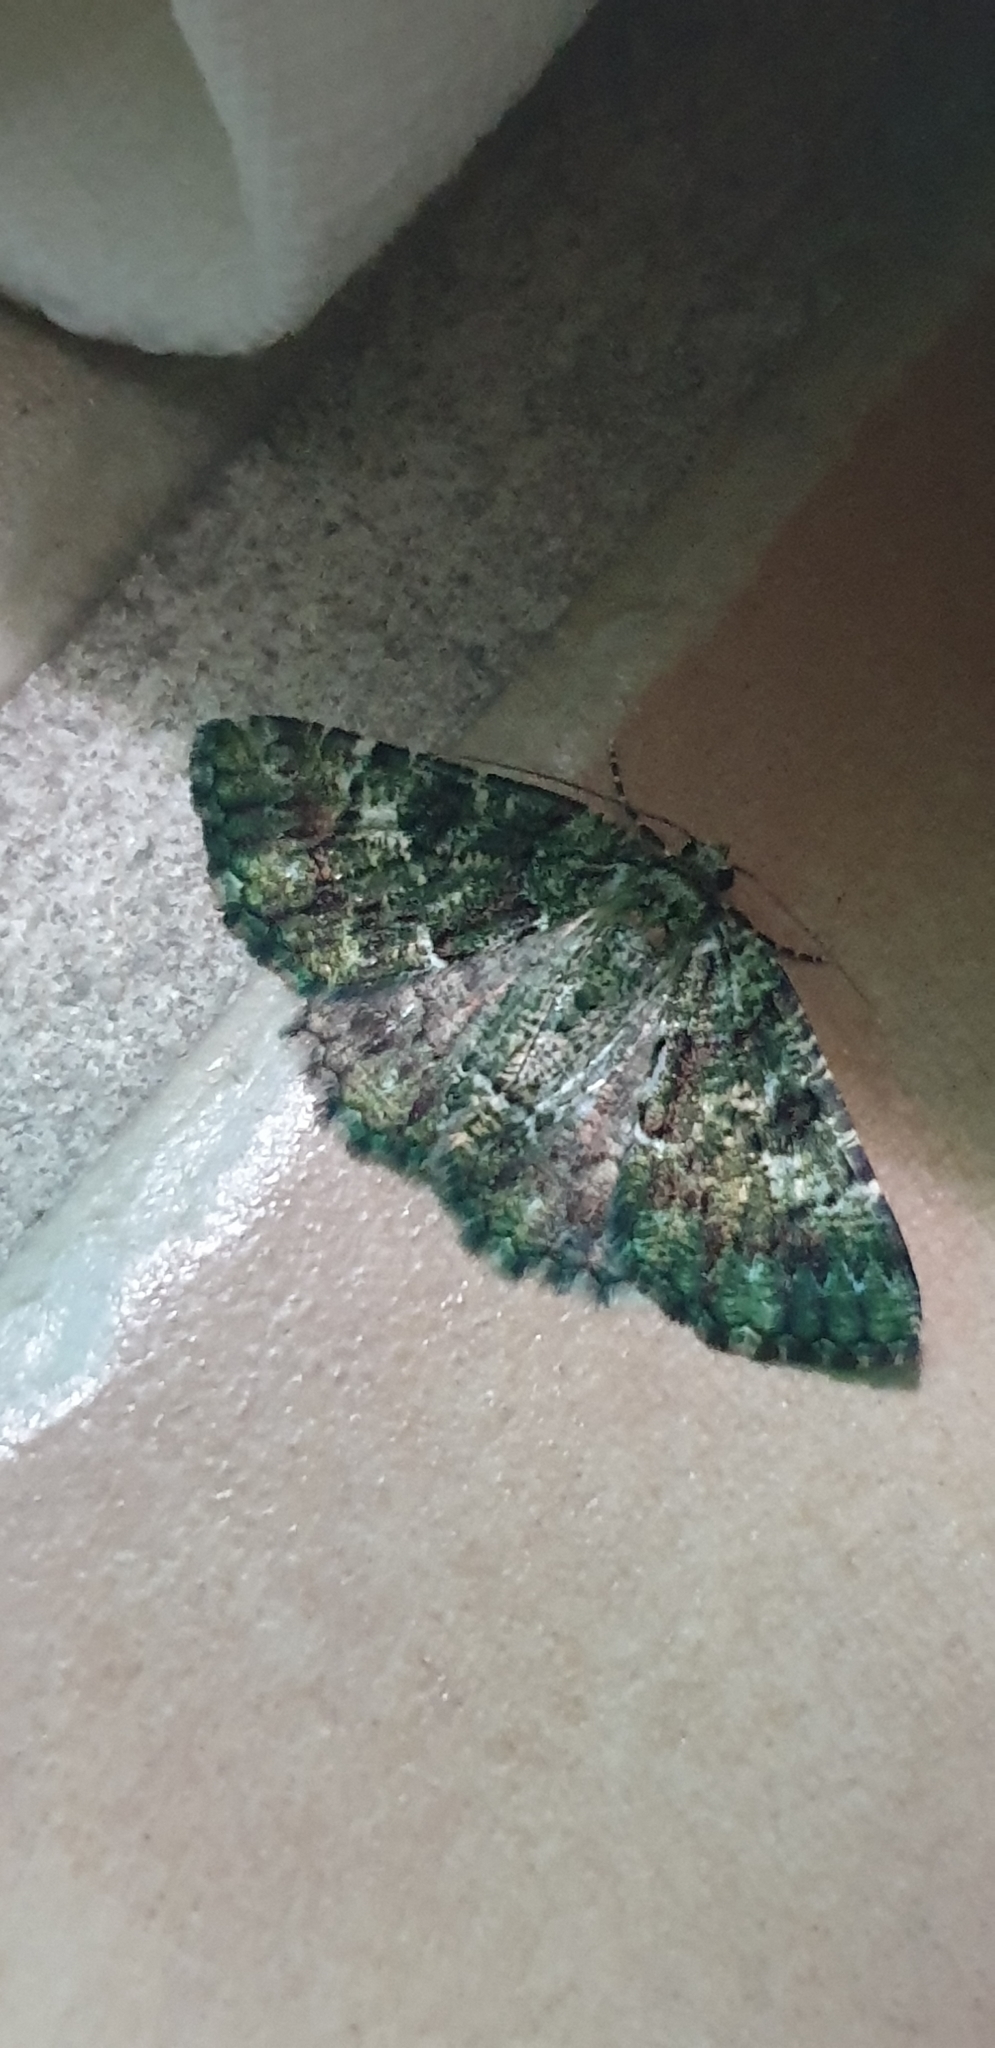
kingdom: Animalia
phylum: Arthropoda
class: Insecta
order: Lepidoptera
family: Geometridae
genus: Aeolochroma
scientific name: Aeolochroma metarhodata
